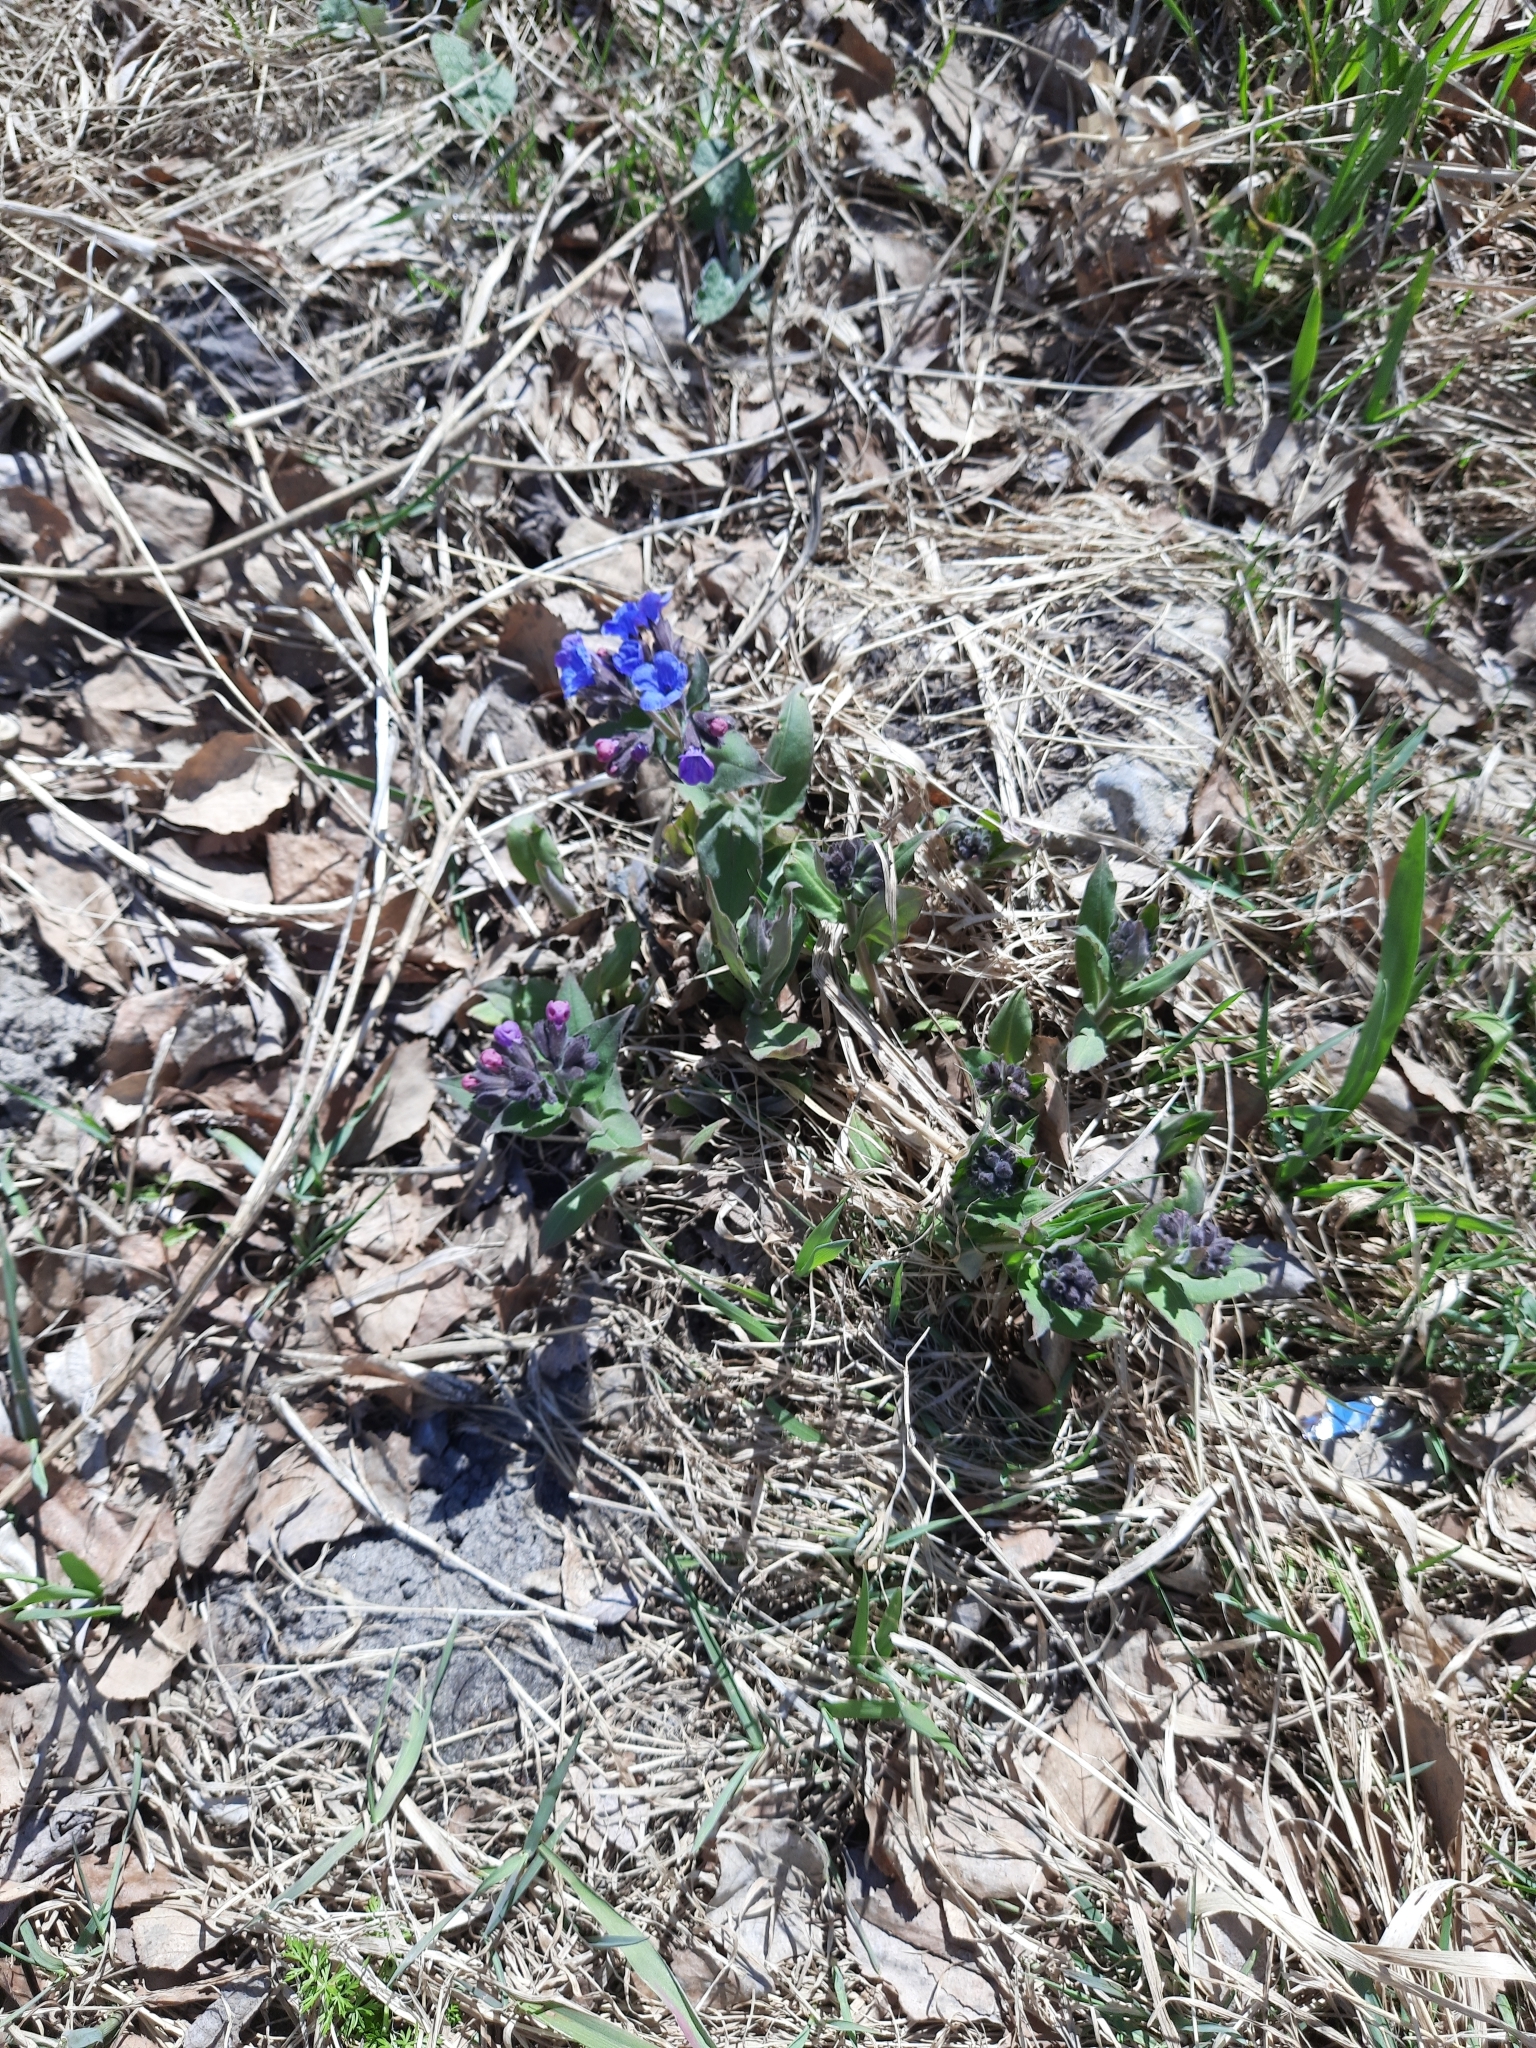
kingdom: Plantae
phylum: Tracheophyta
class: Magnoliopsida
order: Boraginales
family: Boraginaceae
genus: Pulmonaria
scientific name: Pulmonaria mollis
